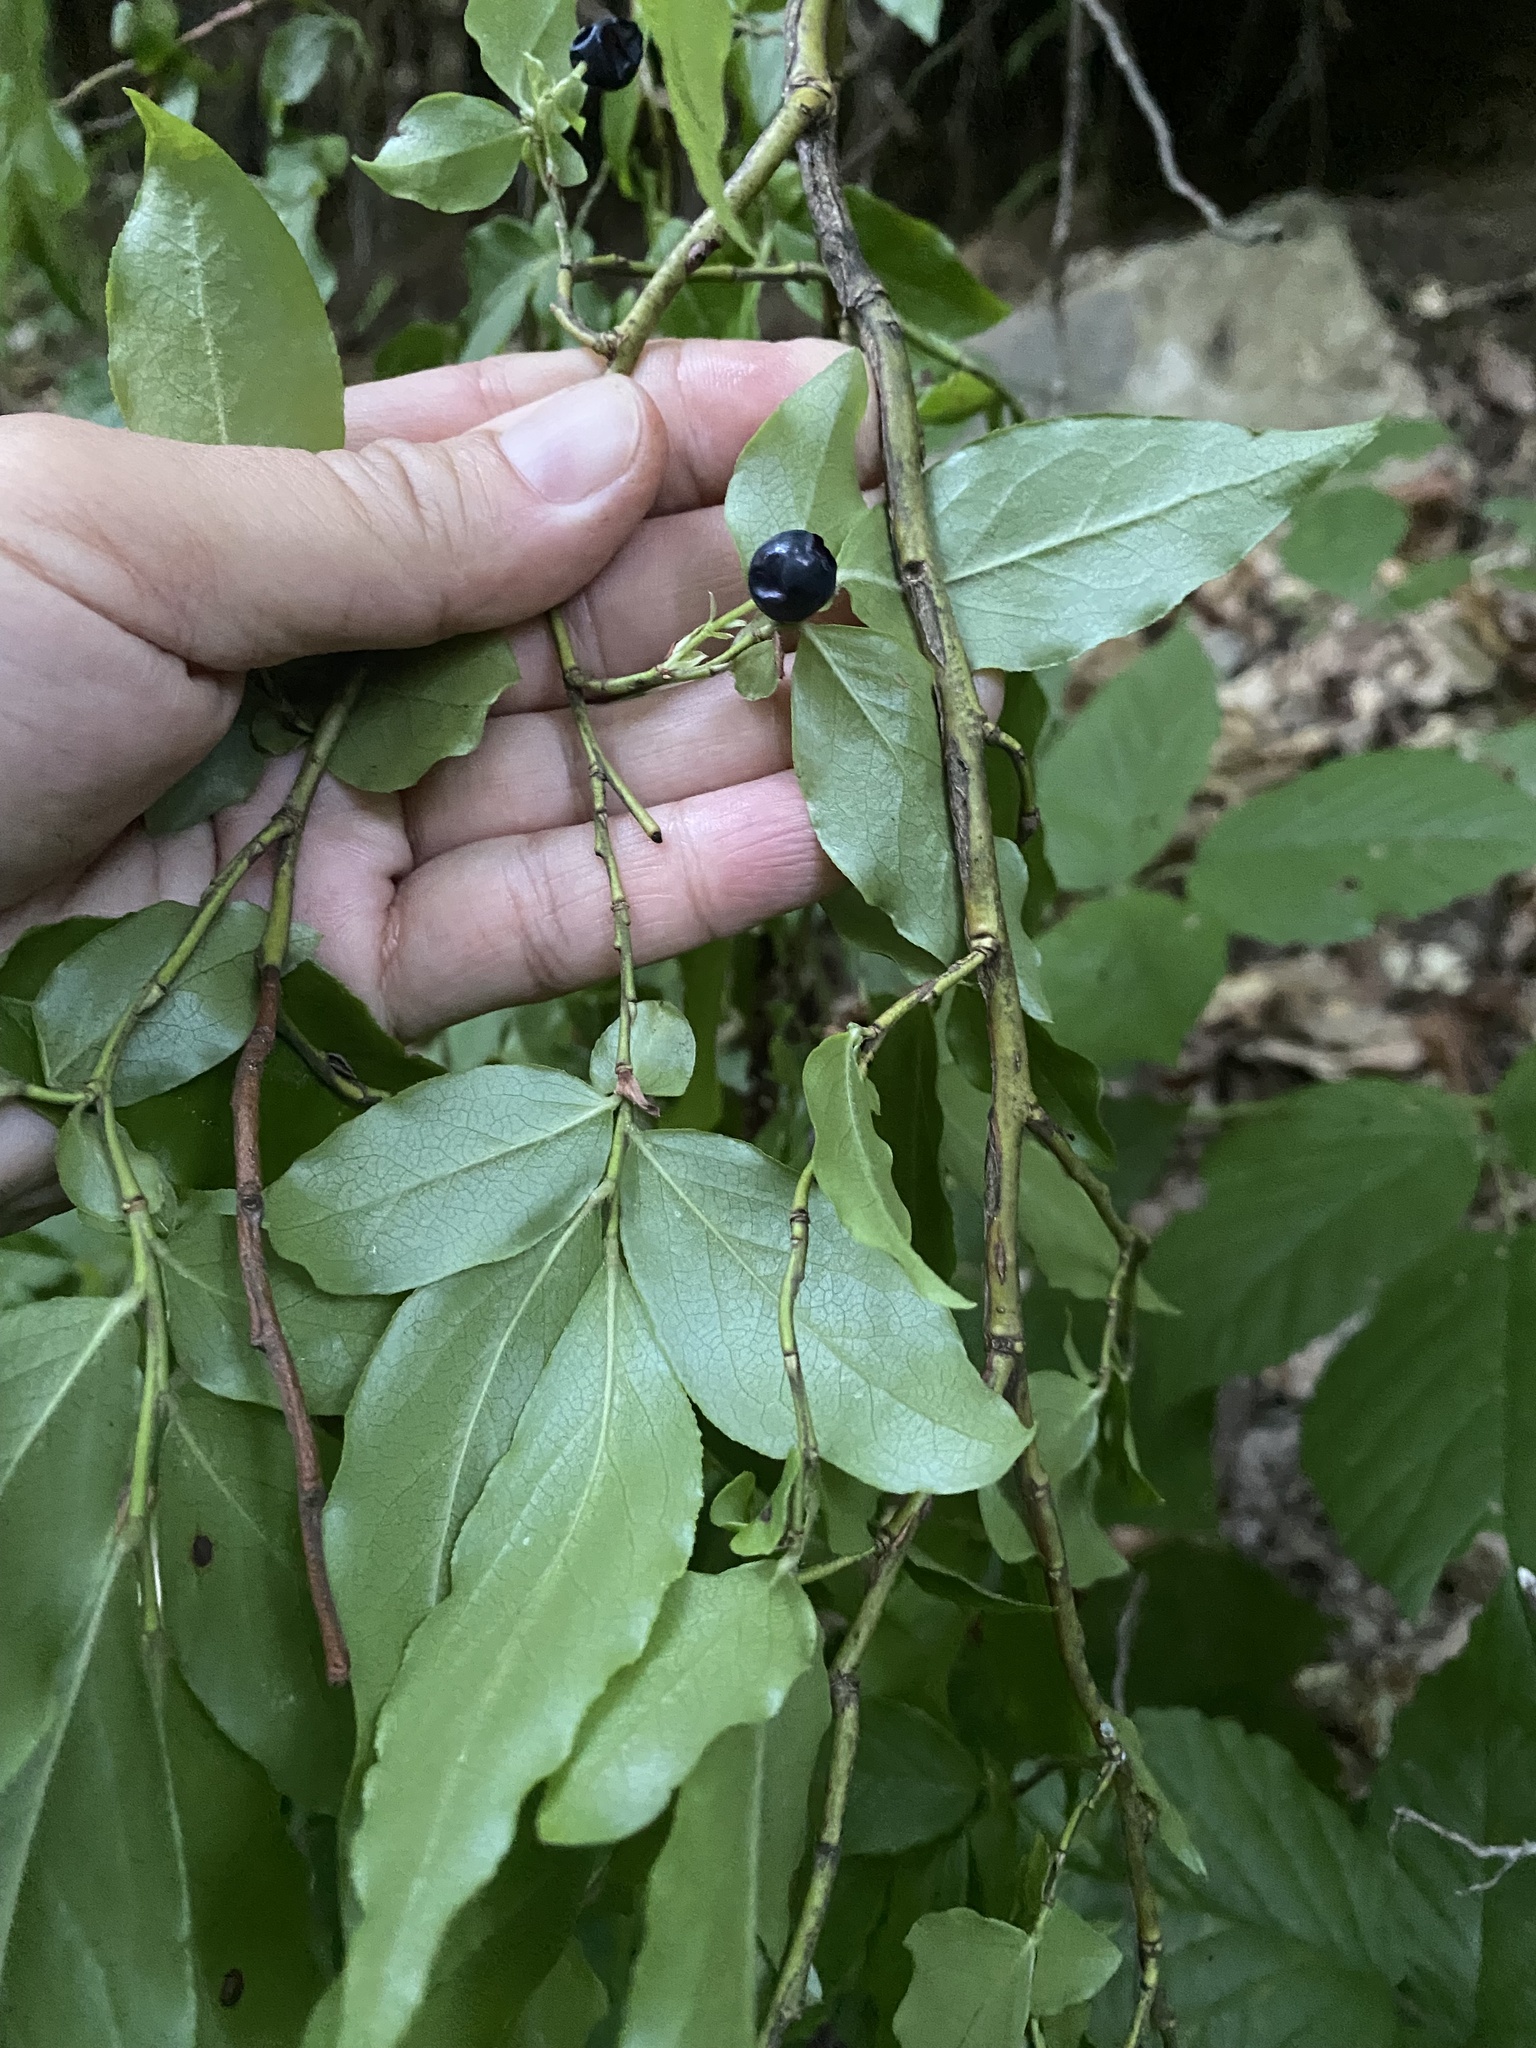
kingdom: Plantae
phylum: Tracheophyta
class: Magnoliopsida
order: Ericales
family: Ericaceae
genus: Vaccinium
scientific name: Vaccinium arctostaphylos
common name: Caucasian whortleberry
